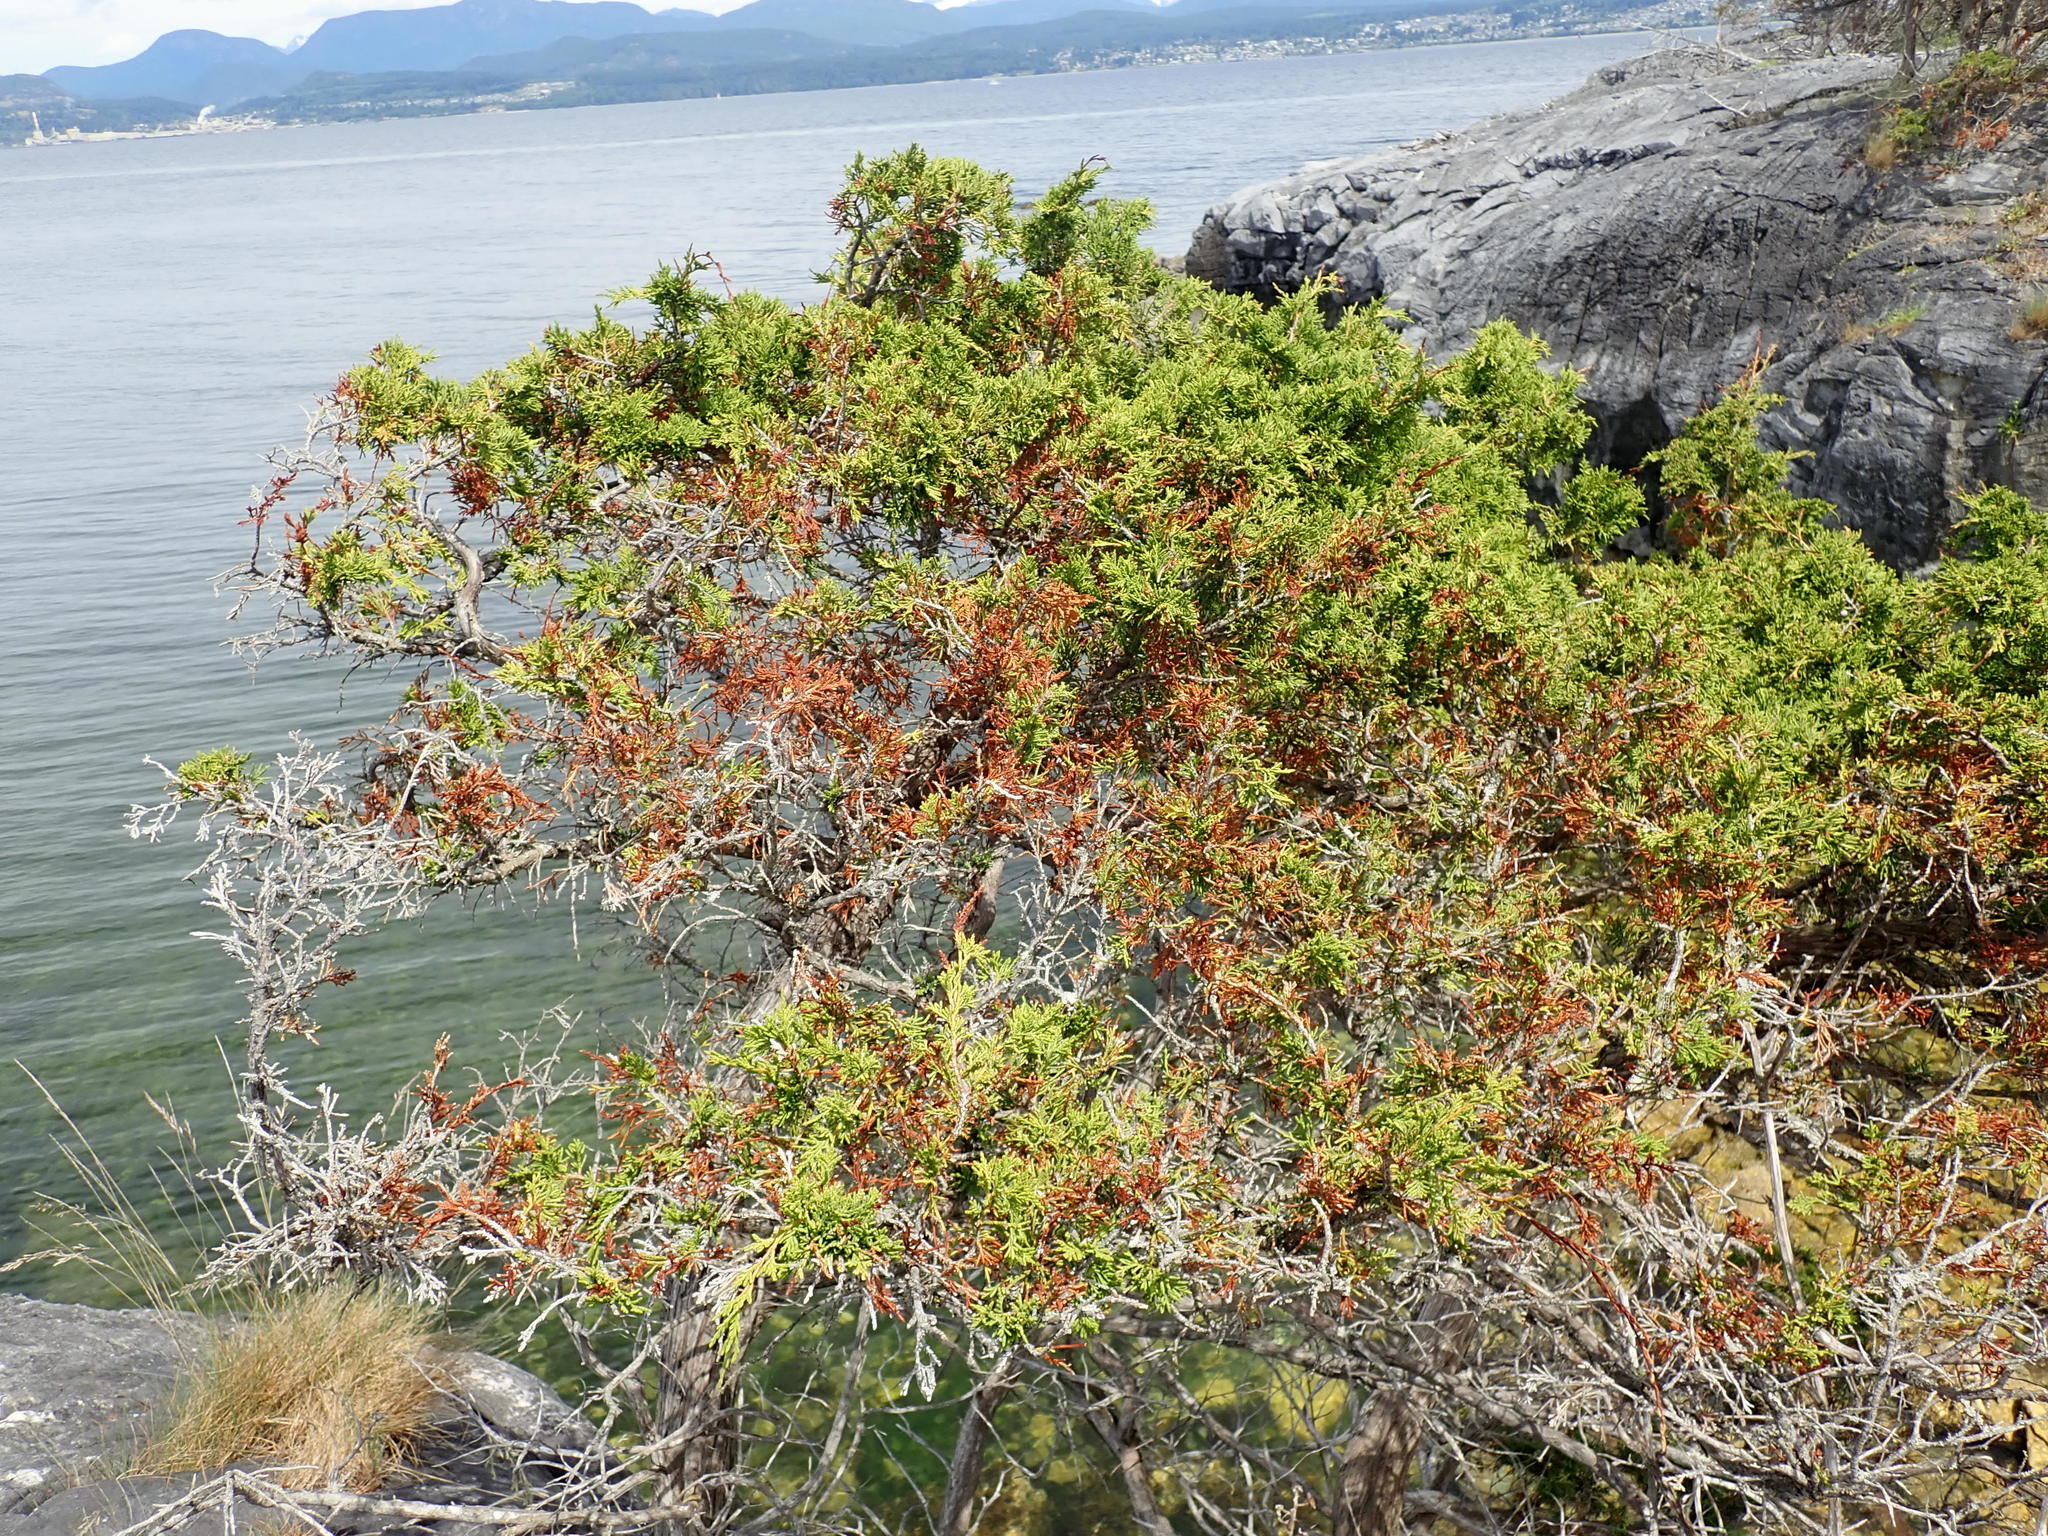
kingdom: Plantae
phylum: Tracheophyta
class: Pinopsida
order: Pinales
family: Cupressaceae
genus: Juniperus
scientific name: Juniperus scopulorum
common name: Rocky mountain juniper
